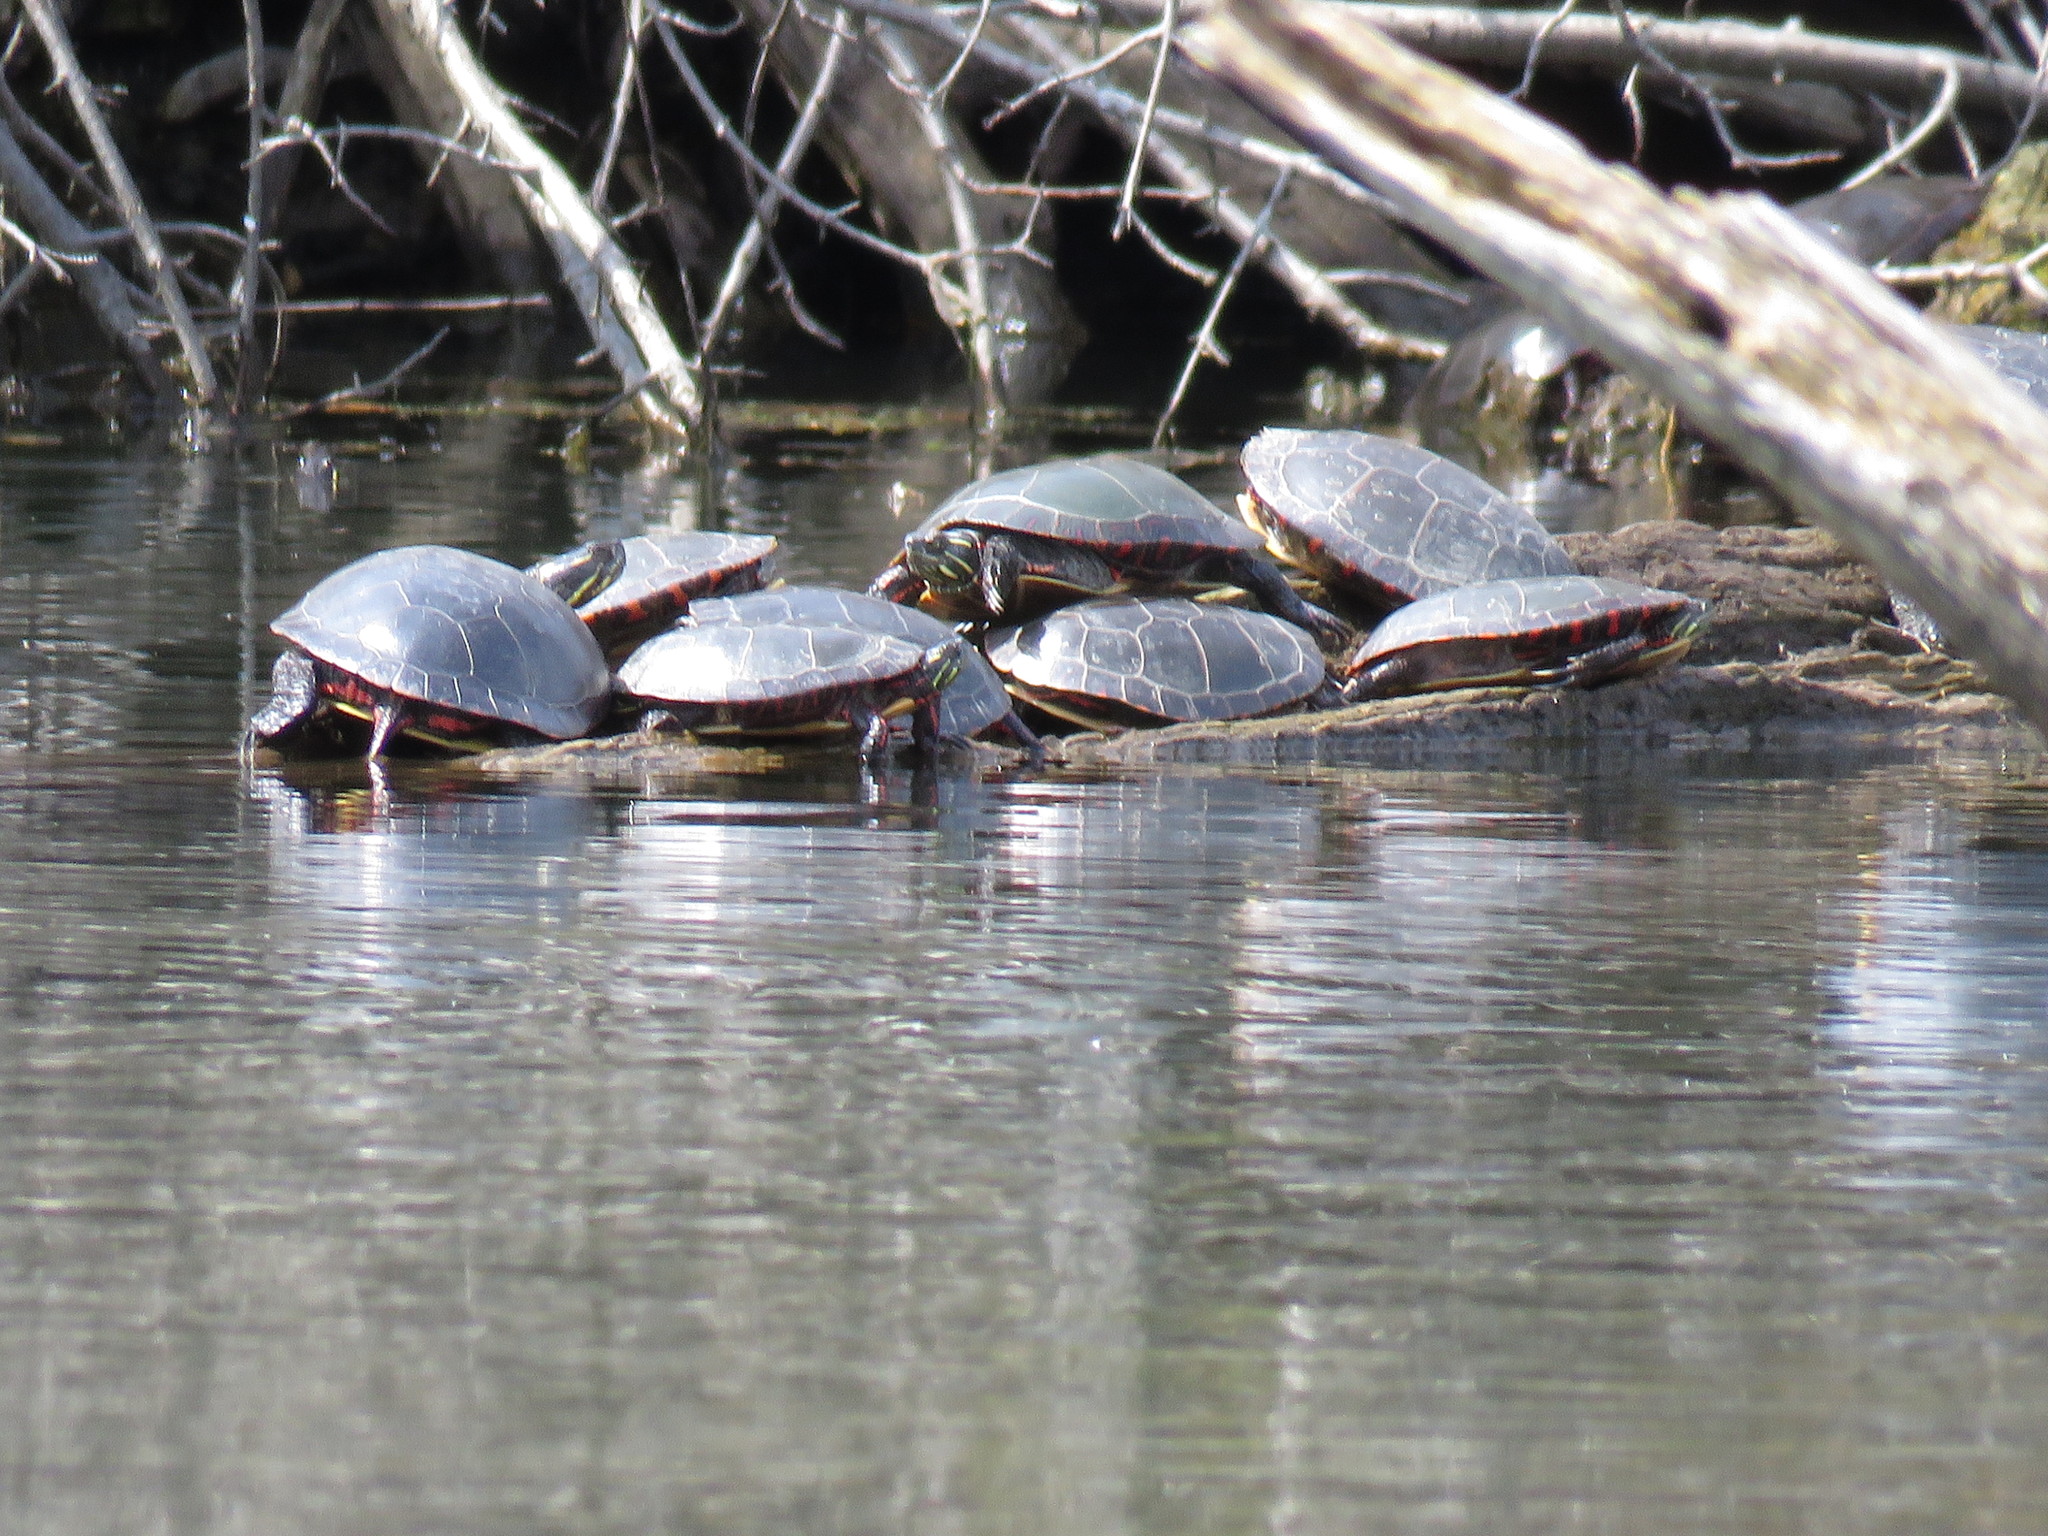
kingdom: Animalia
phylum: Chordata
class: Testudines
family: Emydidae
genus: Chrysemys
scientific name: Chrysemys picta
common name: Painted turtle
